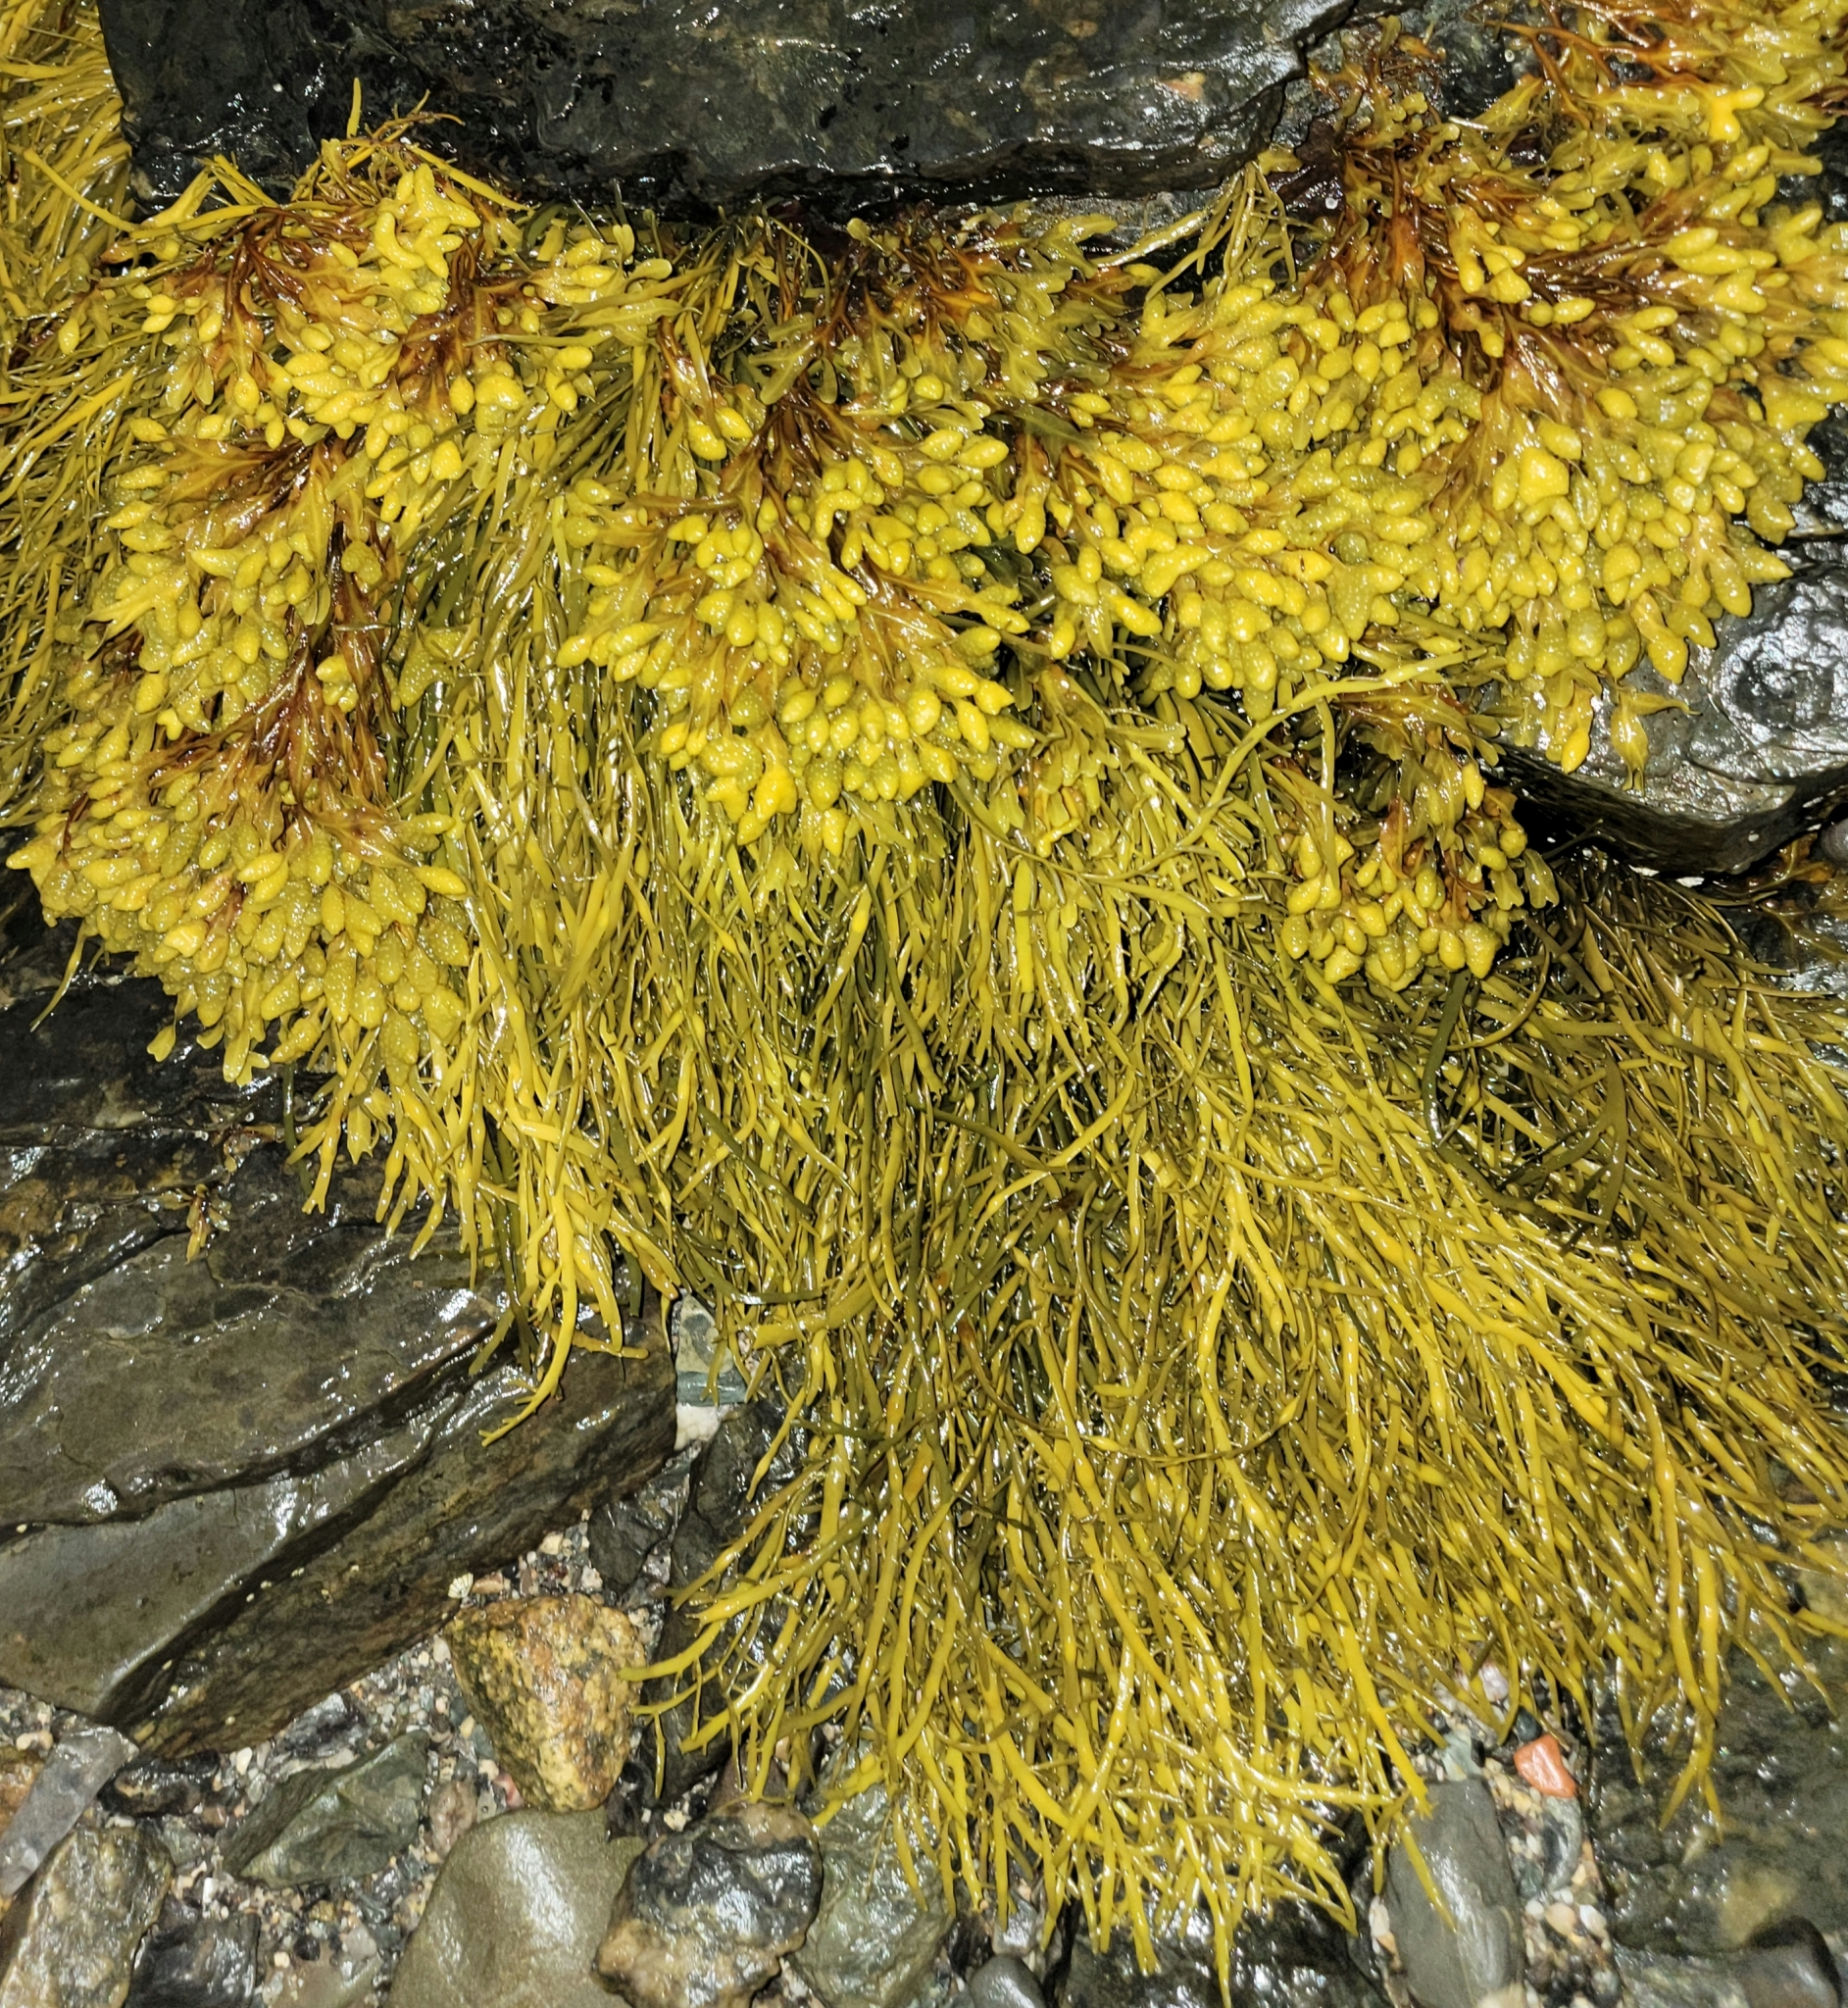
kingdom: Chromista
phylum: Ochrophyta
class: Phaeophyceae
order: Fucales
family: Fucaceae
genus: Ascophyllum
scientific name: Ascophyllum nodosum
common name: Knotted wrack
